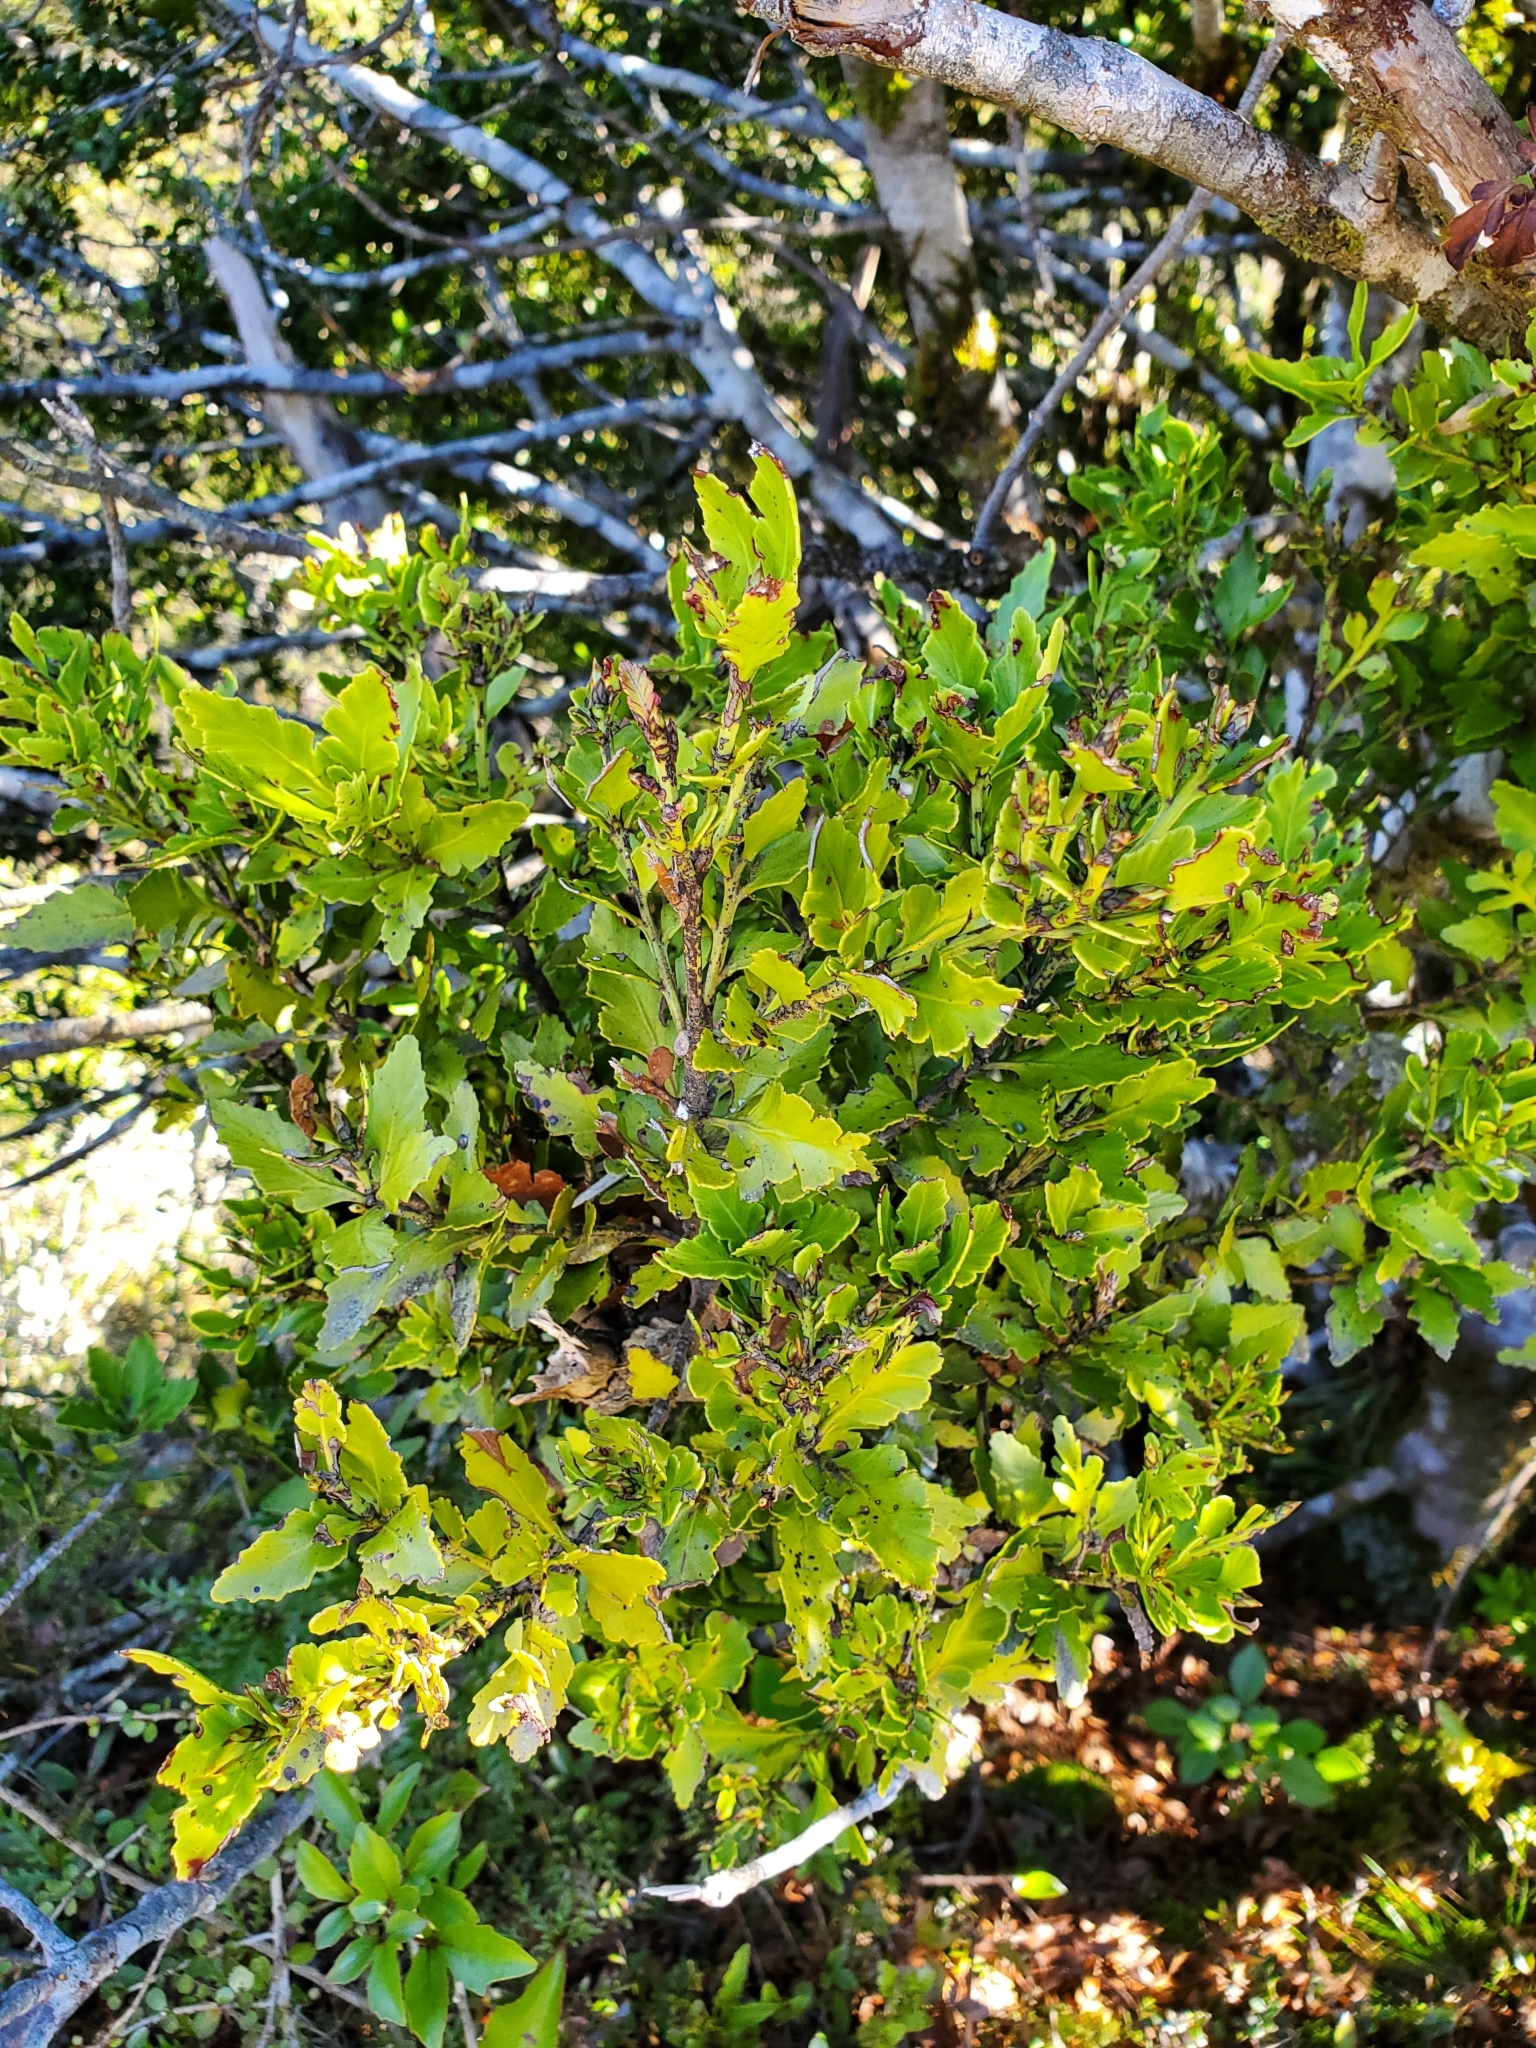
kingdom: Plantae
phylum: Tracheophyta
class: Pinopsida
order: Pinales
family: Phyllocladaceae
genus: Phyllocladus
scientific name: Phyllocladus trichomanoides
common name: Celery pine
